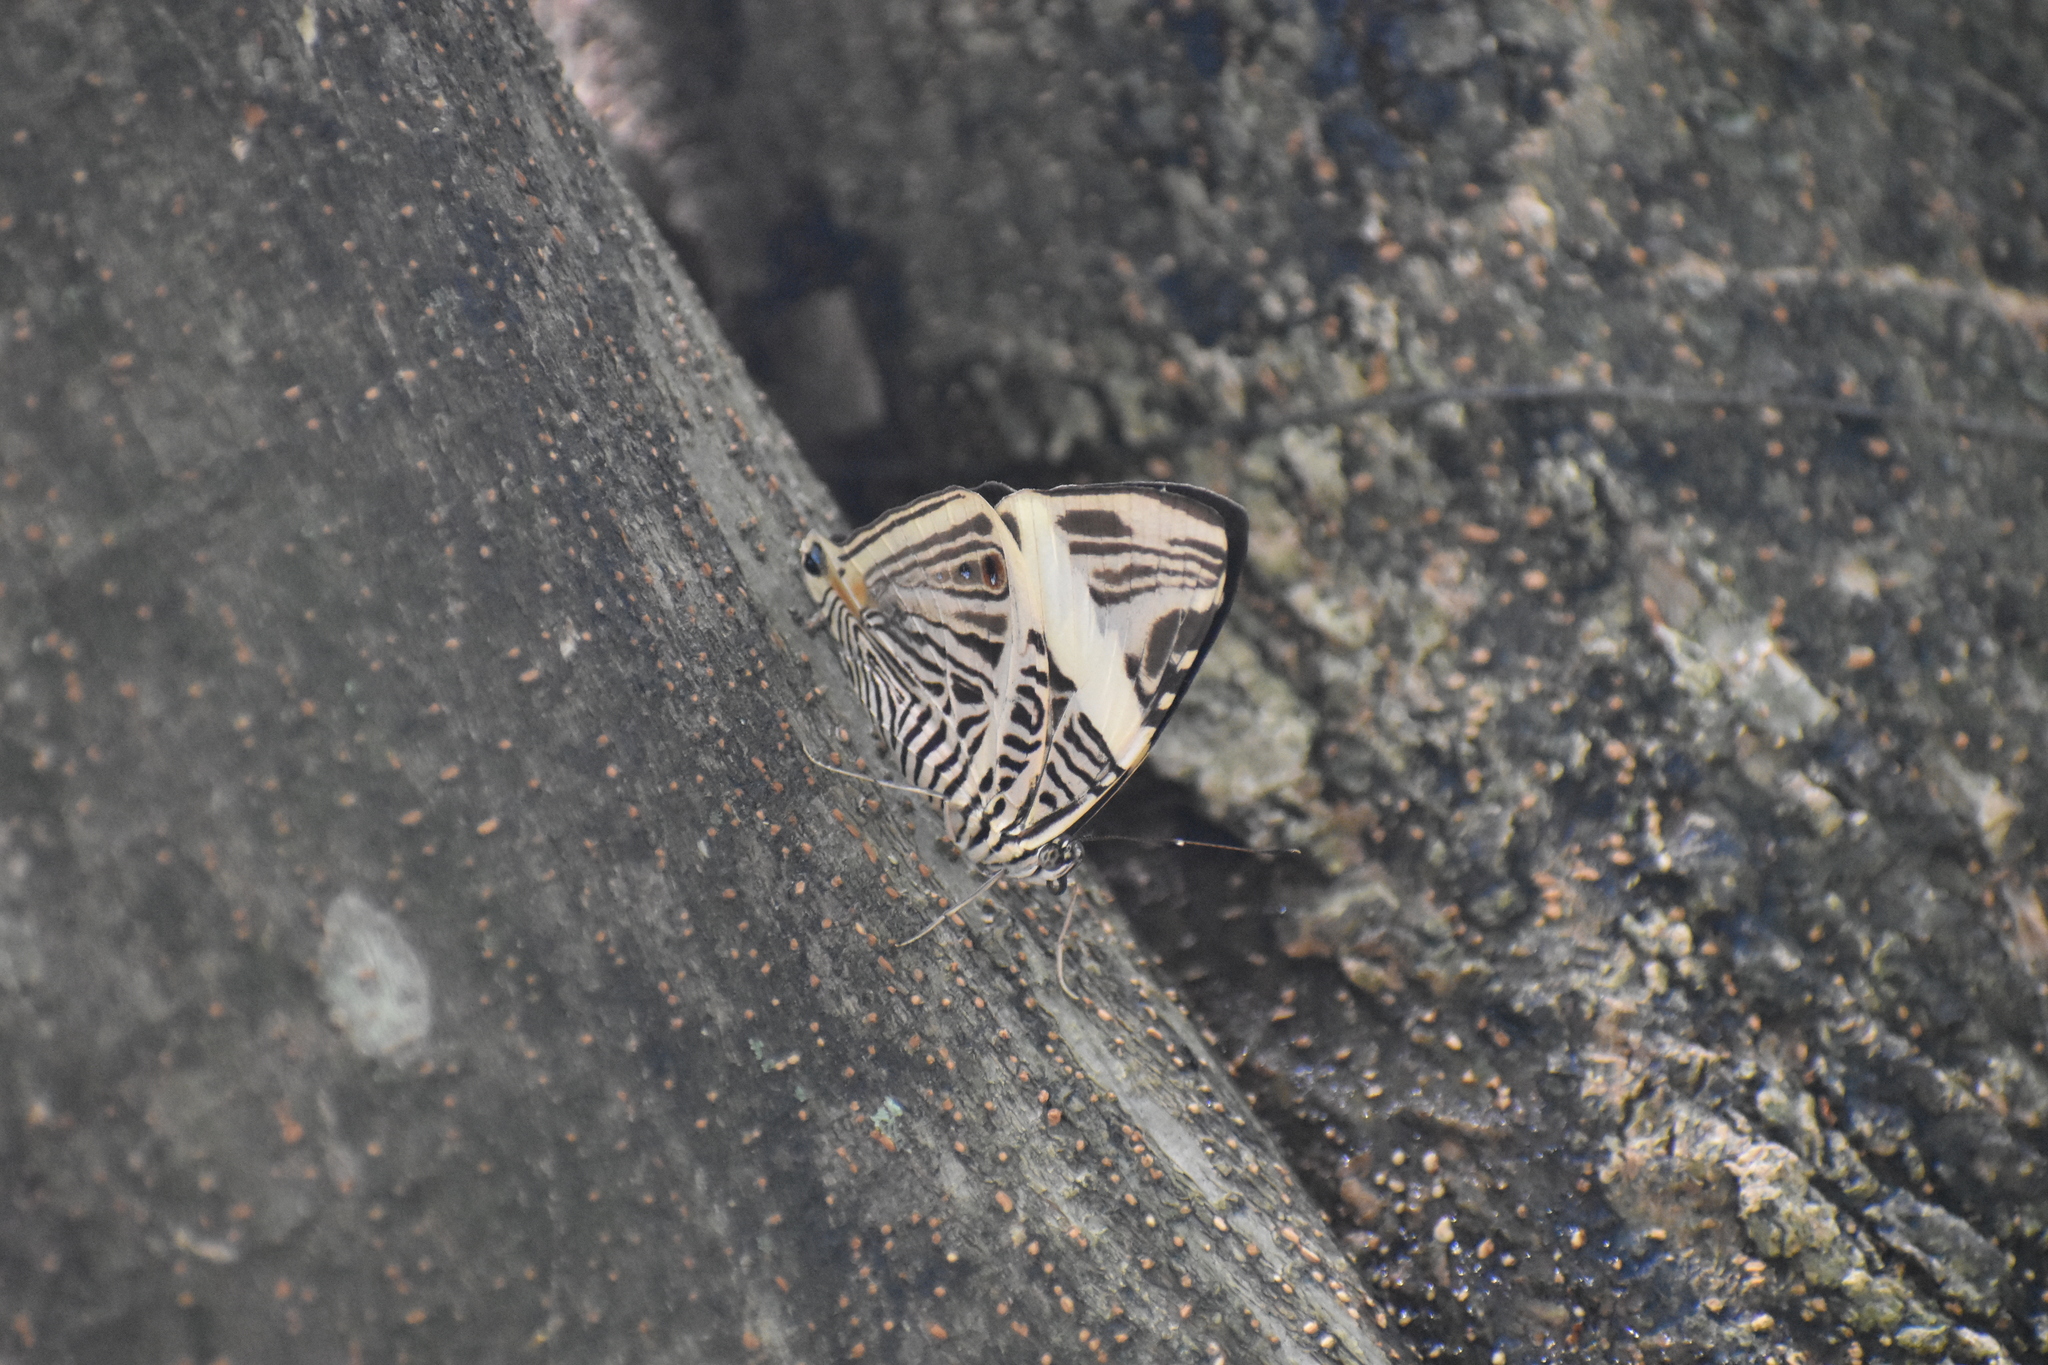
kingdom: Animalia
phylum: Arthropoda
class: Insecta
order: Lepidoptera
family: Nymphalidae
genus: Colobura
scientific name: Colobura dirce
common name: Dirce beauty
